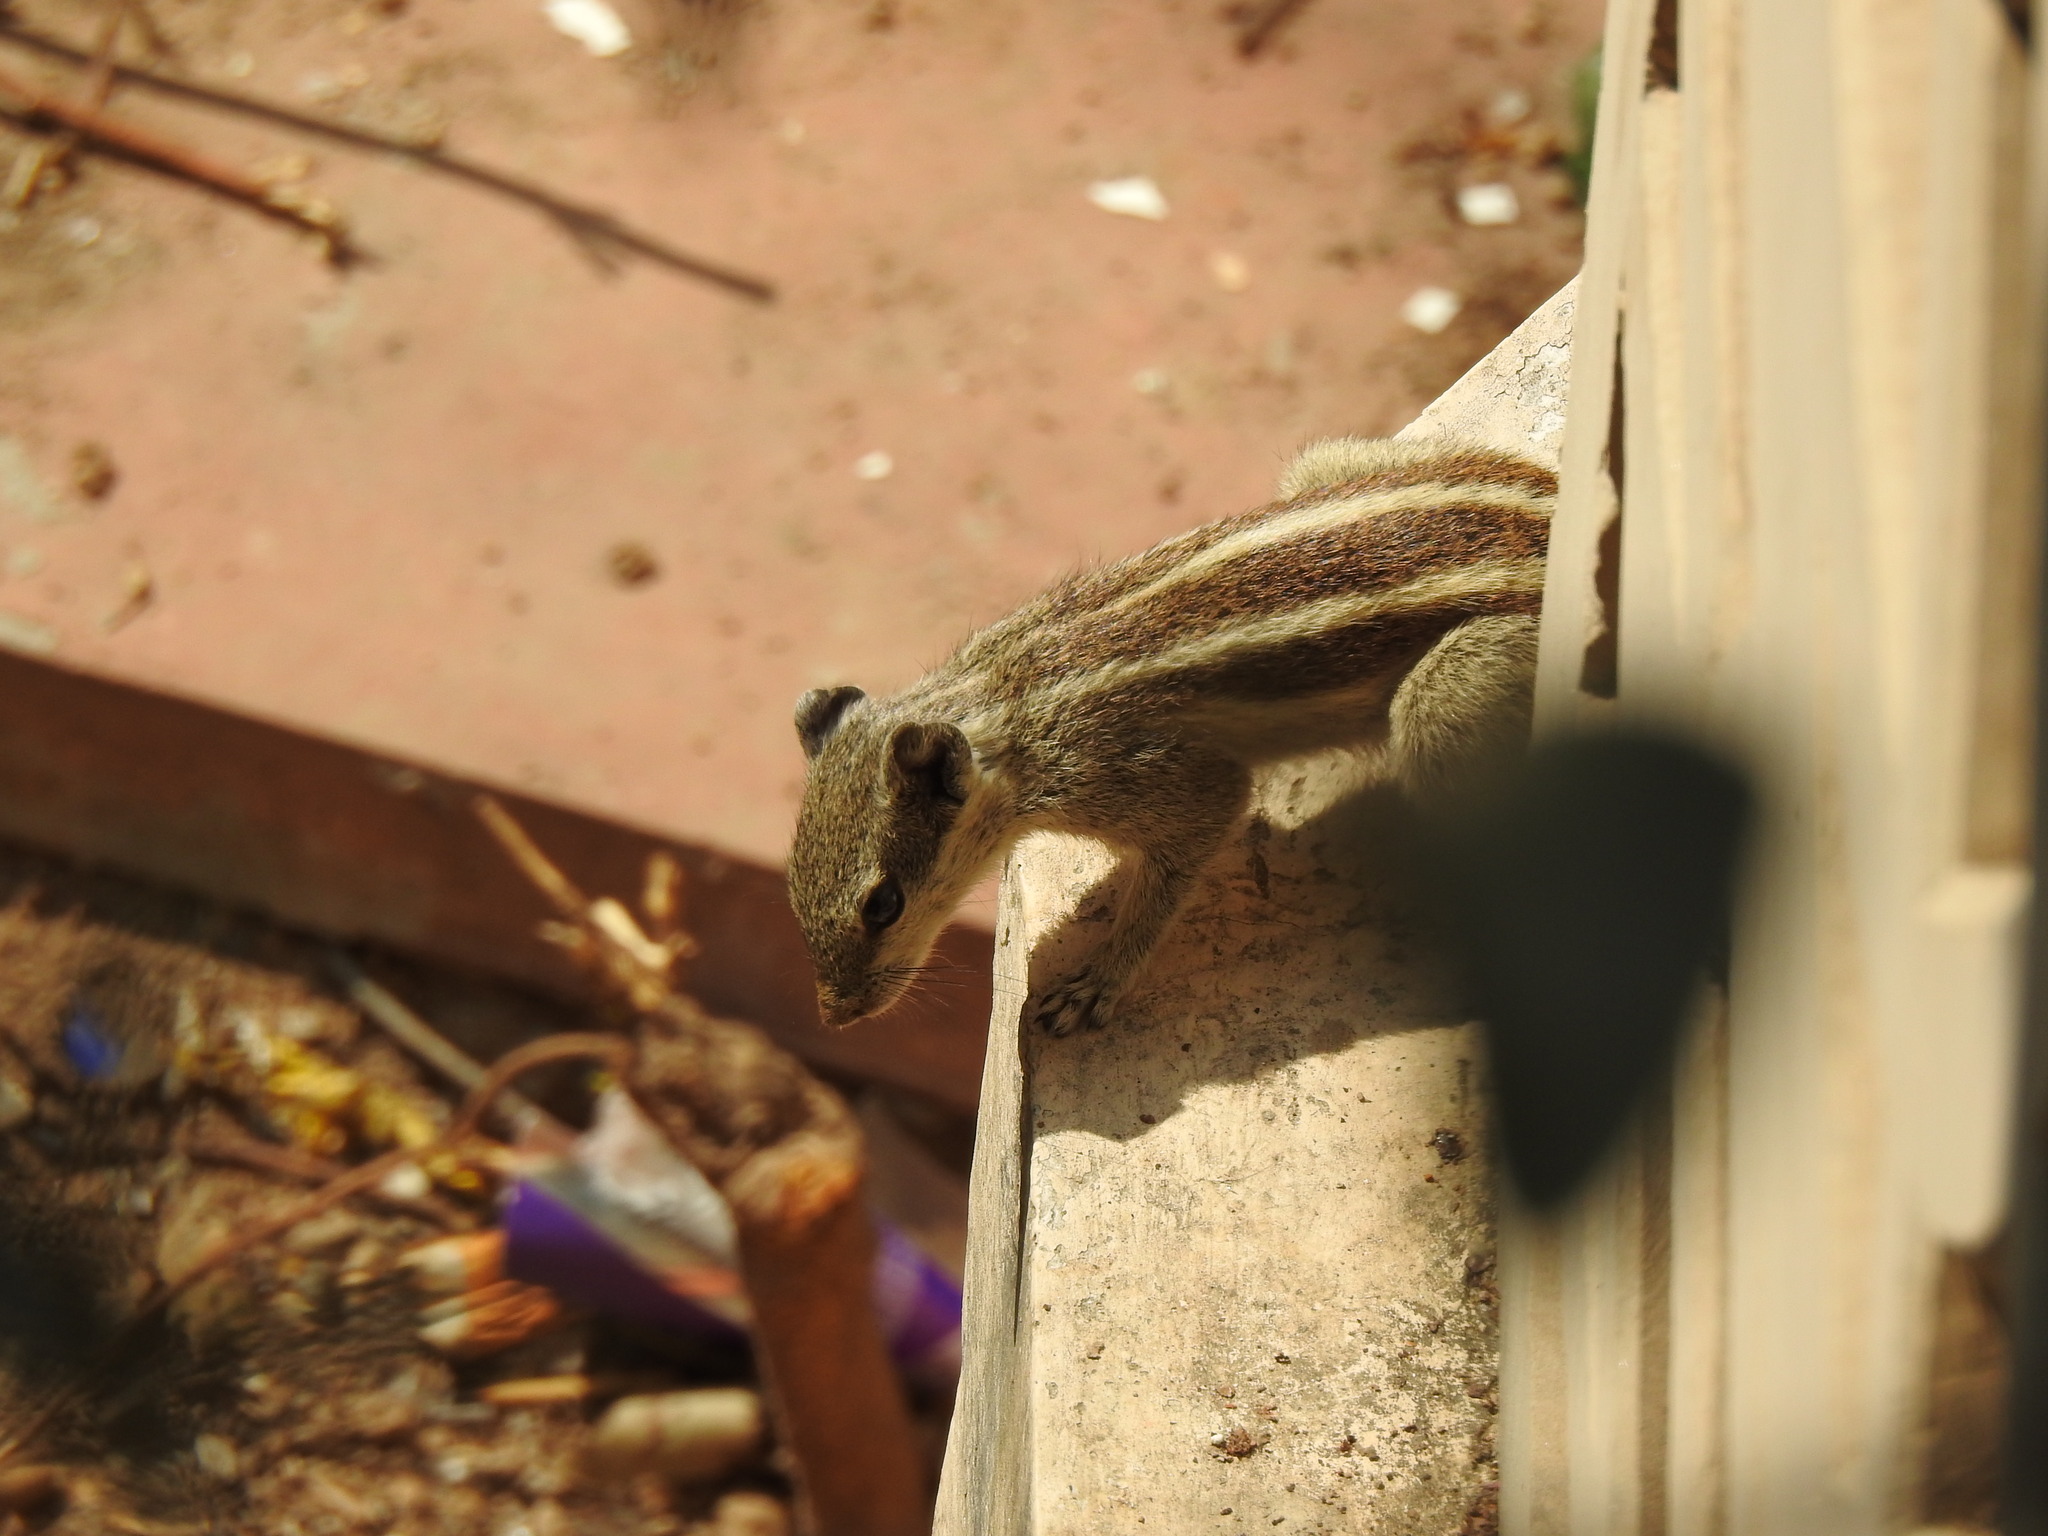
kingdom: Animalia
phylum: Chordata
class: Mammalia
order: Rodentia
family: Sciuridae
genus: Funambulus
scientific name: Funambulus pennantii
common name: Northern palm squirrel
